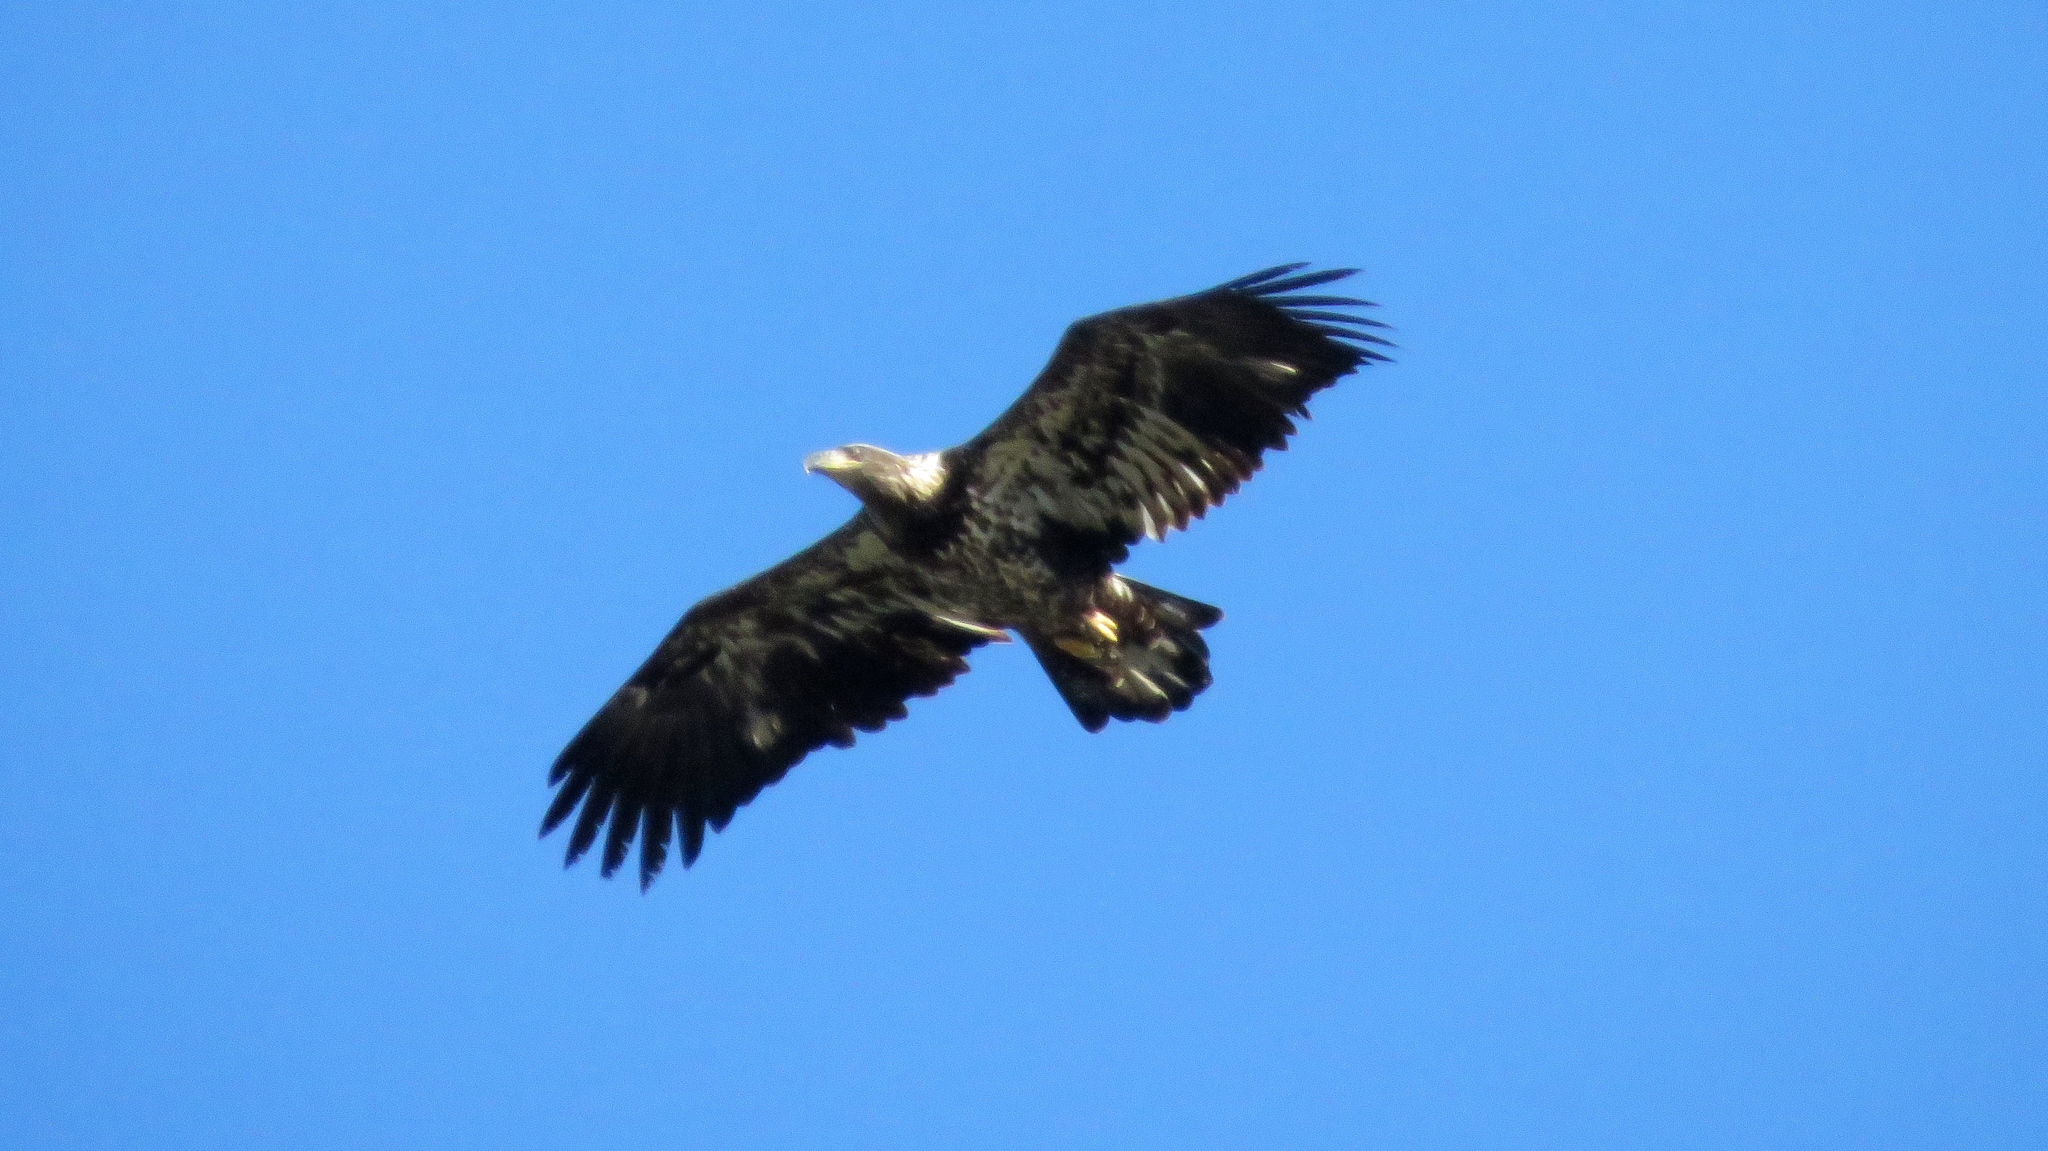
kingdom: Animalia
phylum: Chordata
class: Aves
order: Accipitriformes
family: Accipitridae
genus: Haliaeetus
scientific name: Haliaeetus leucocephalus
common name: Bald eagle
